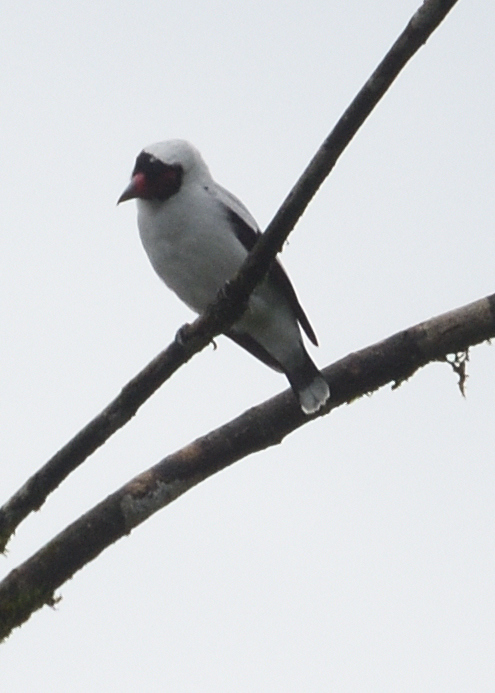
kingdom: Animalia
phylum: Chordata
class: Aves
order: Passeriformes
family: Cotingidae
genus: Tityra
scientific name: Tityra semifasciata
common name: Masked tityra
